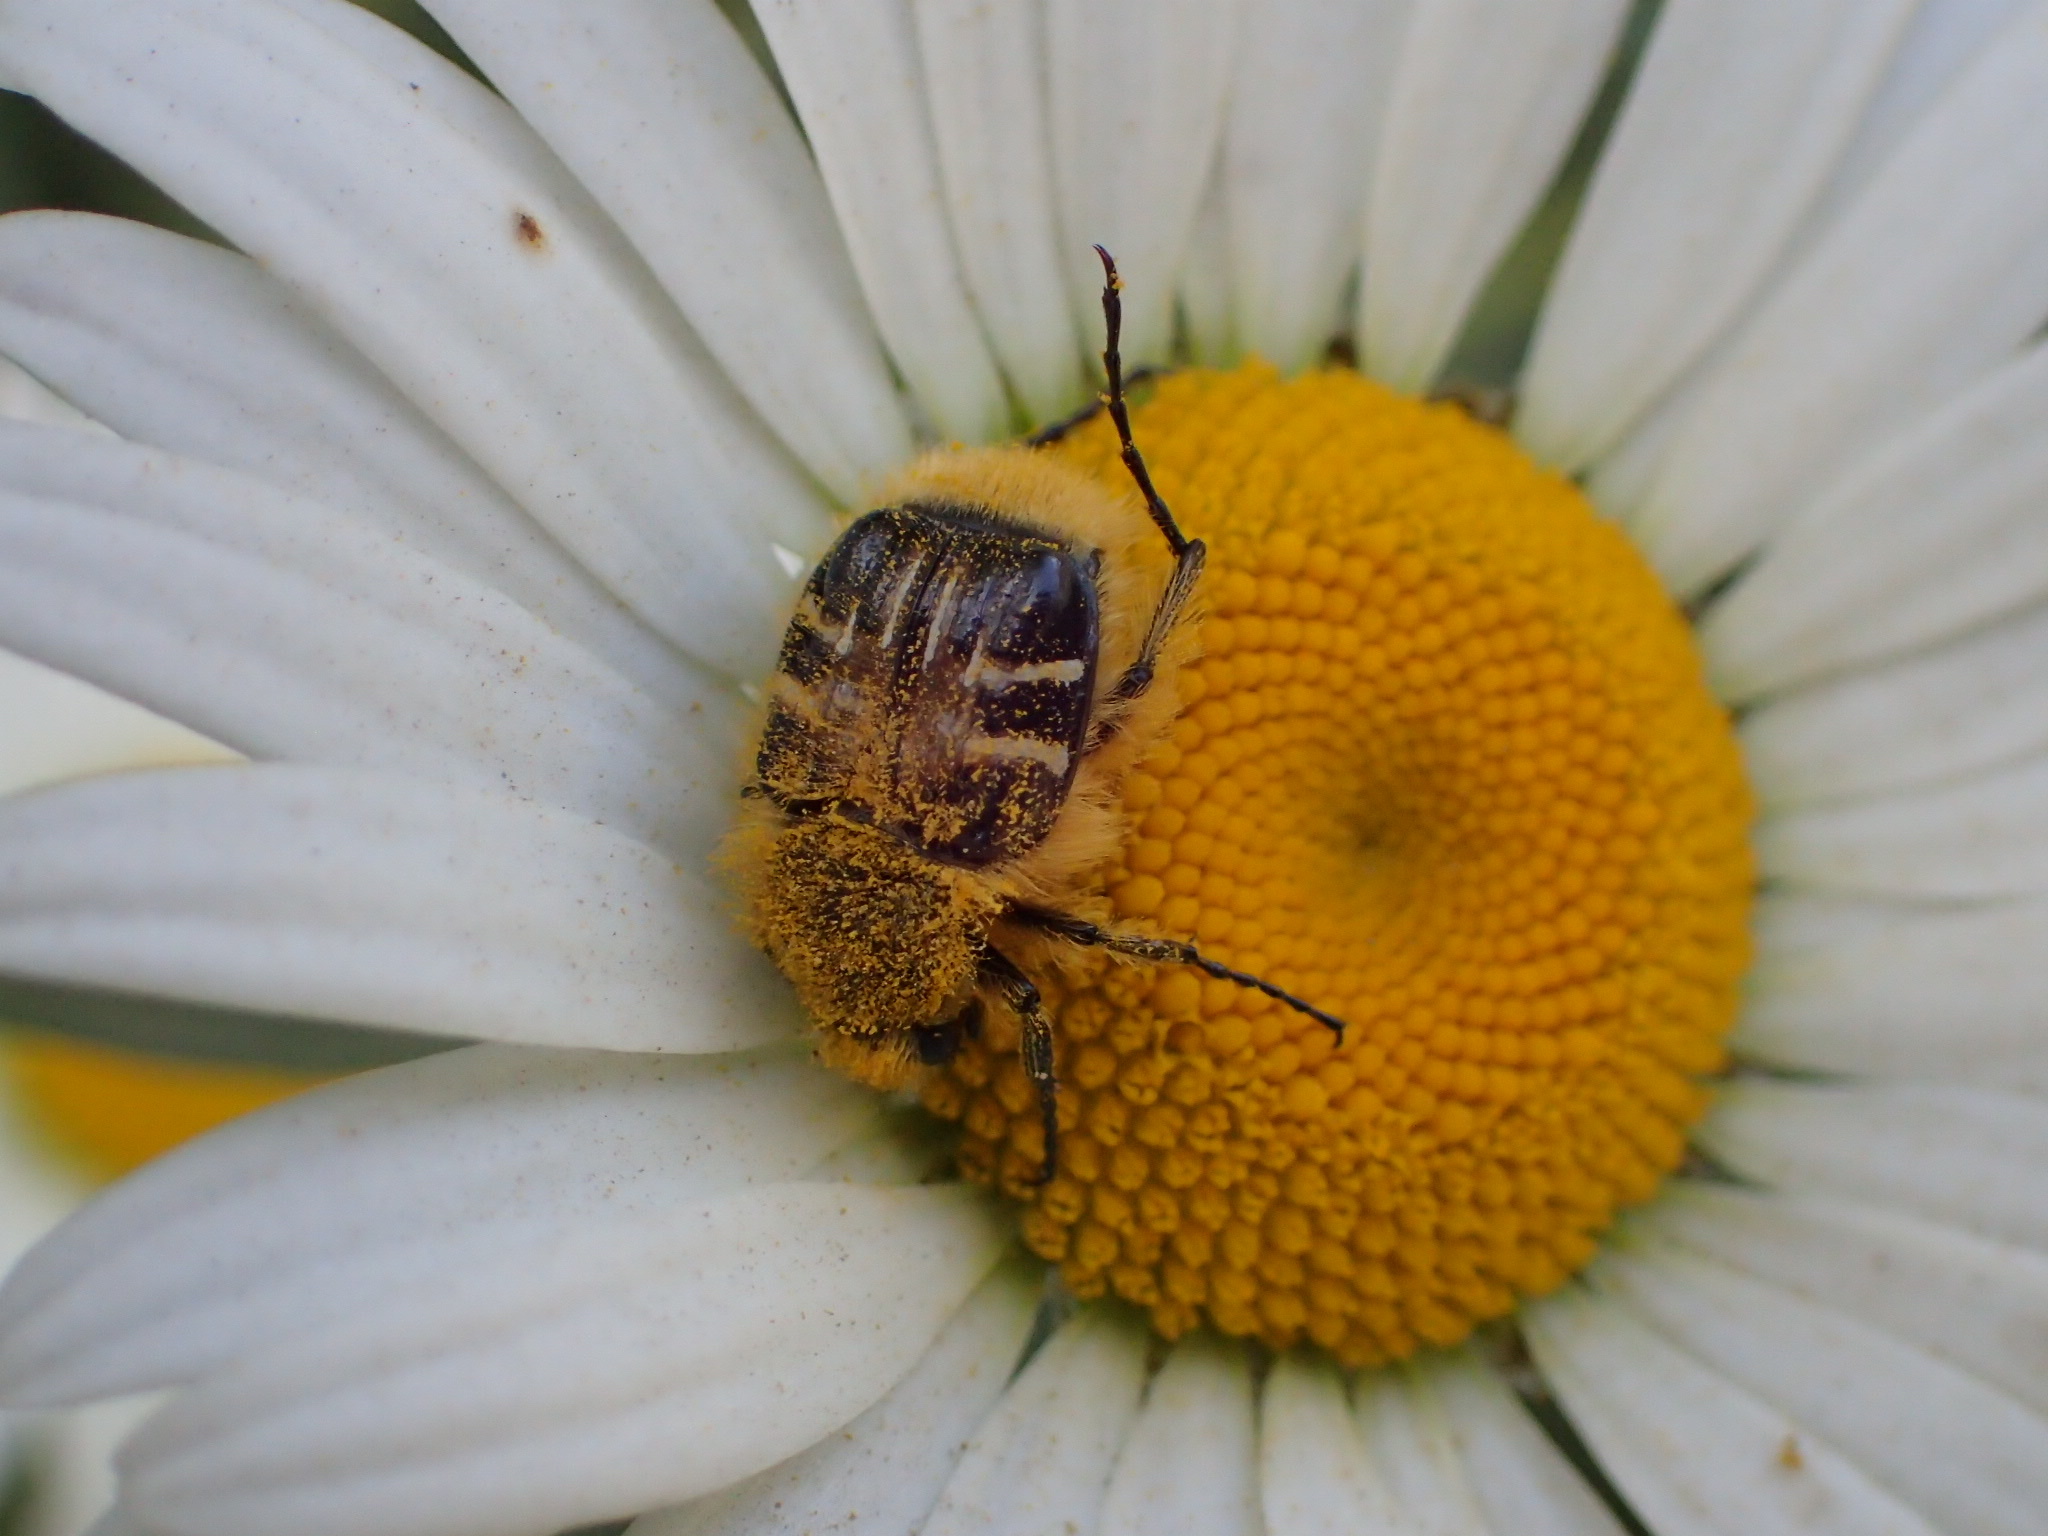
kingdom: Animalia
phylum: Arthropoda
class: Insecta
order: Coleoptera
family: Scarabaeidae
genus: Trichiotinus
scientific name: Trichiotinus assimilis
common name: Bee-mimic beetle
